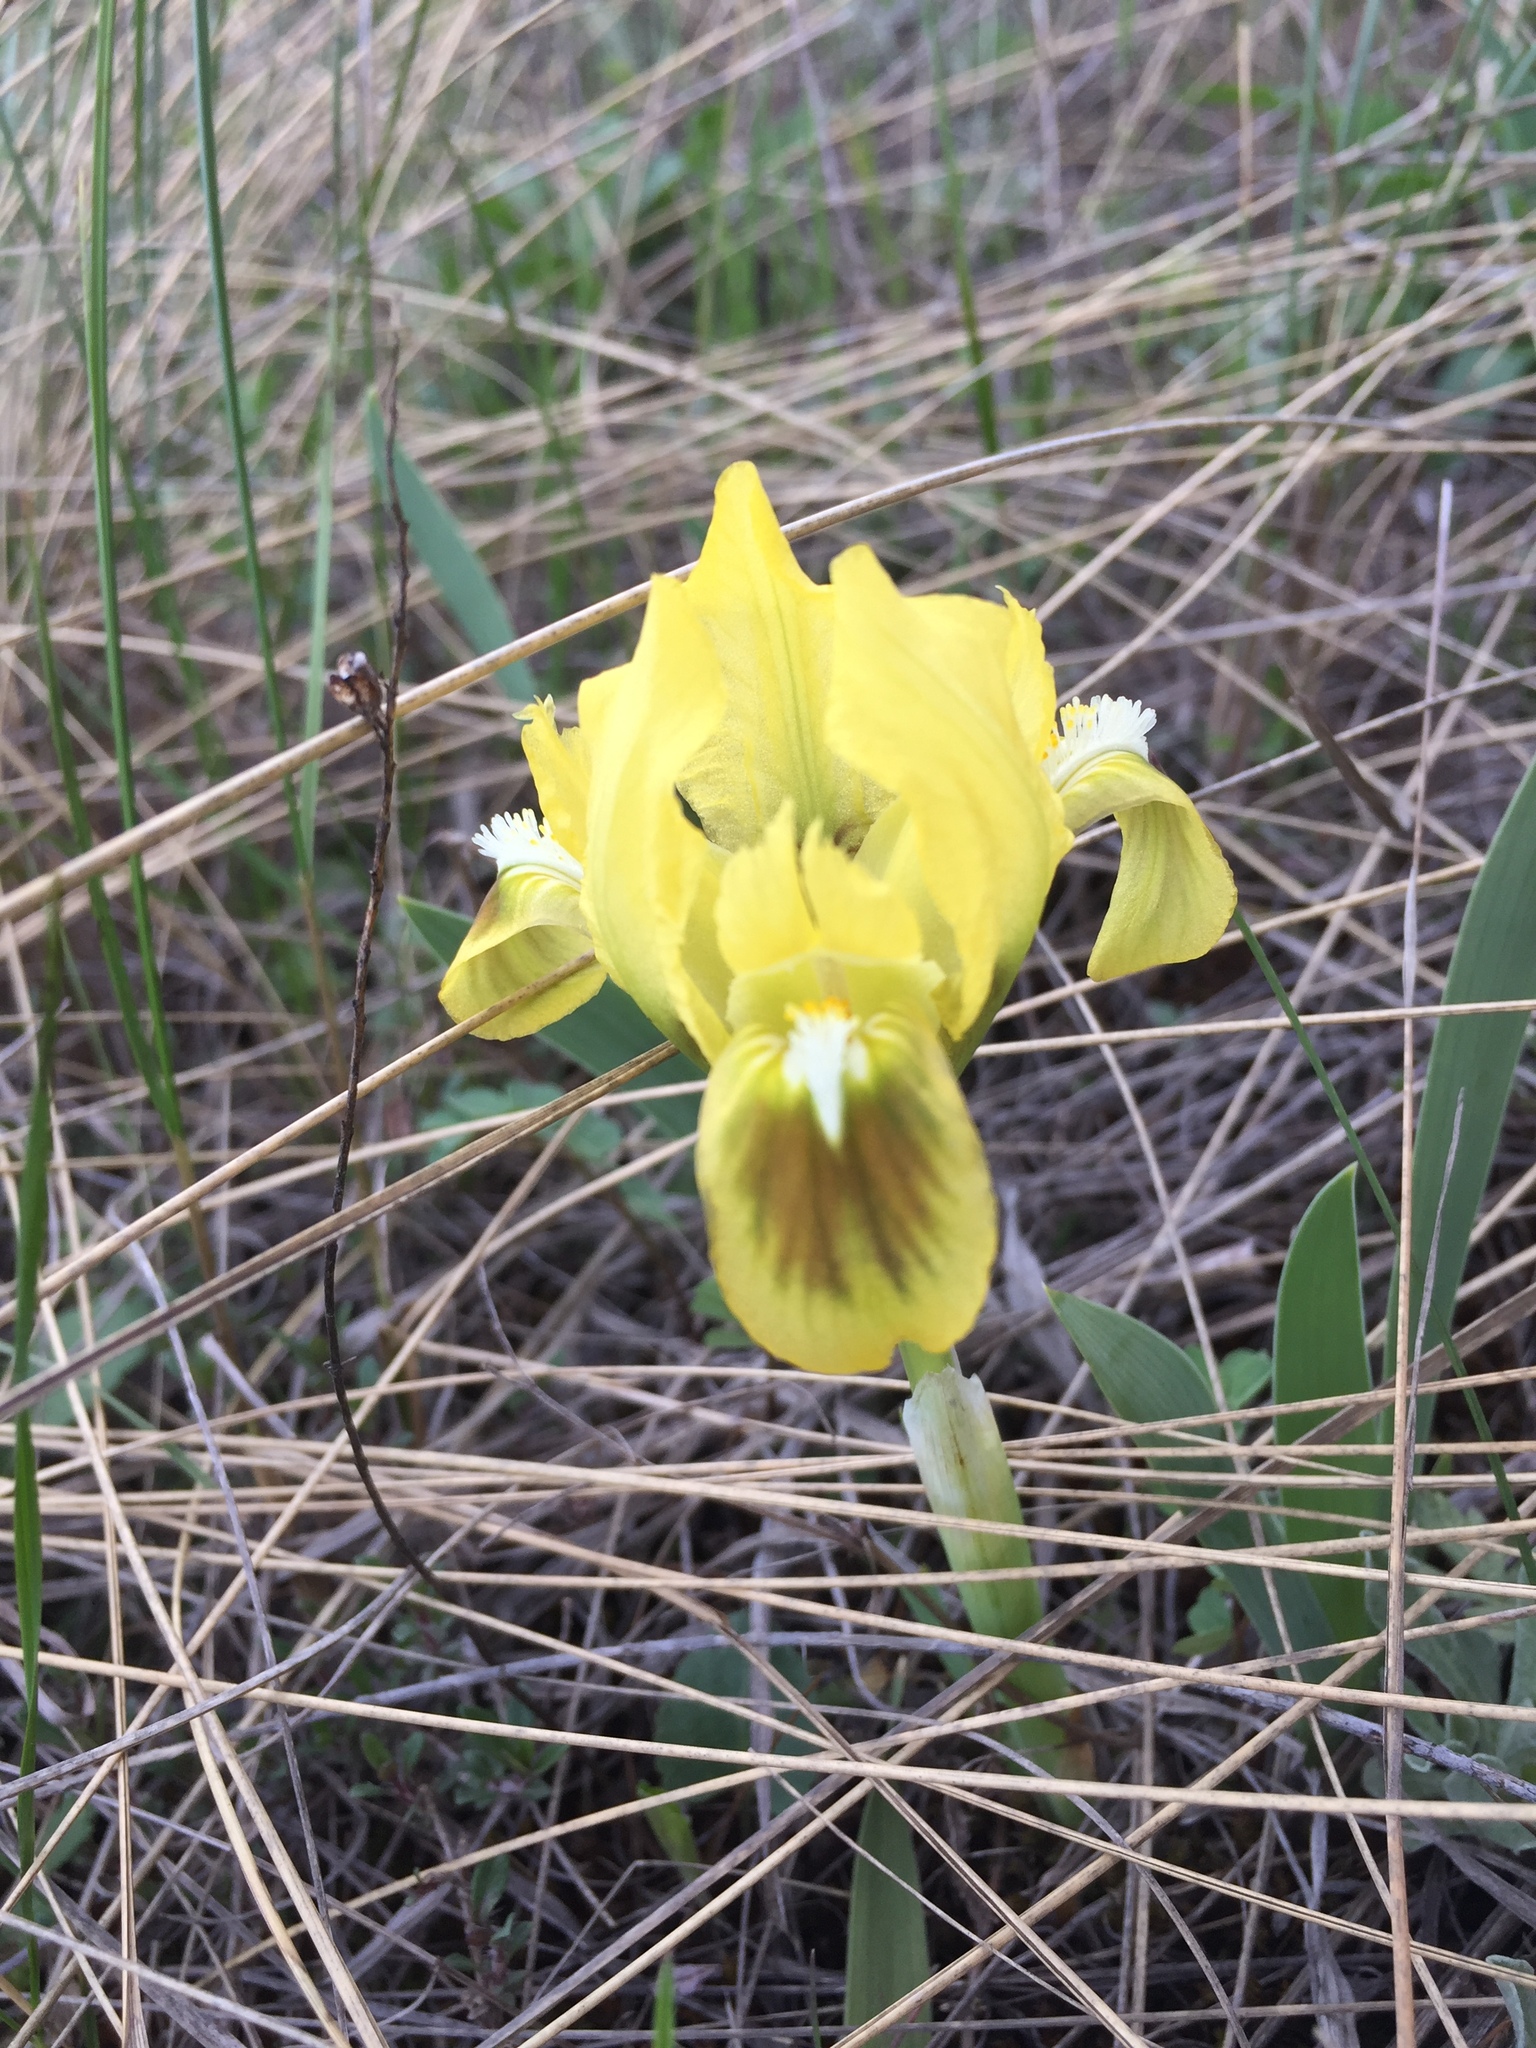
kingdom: Plantae
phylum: Tracheophyta
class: Liliopsida
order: Asparagales
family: Iridaceae
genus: Iris
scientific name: Iris pumila
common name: Dwarf iris
